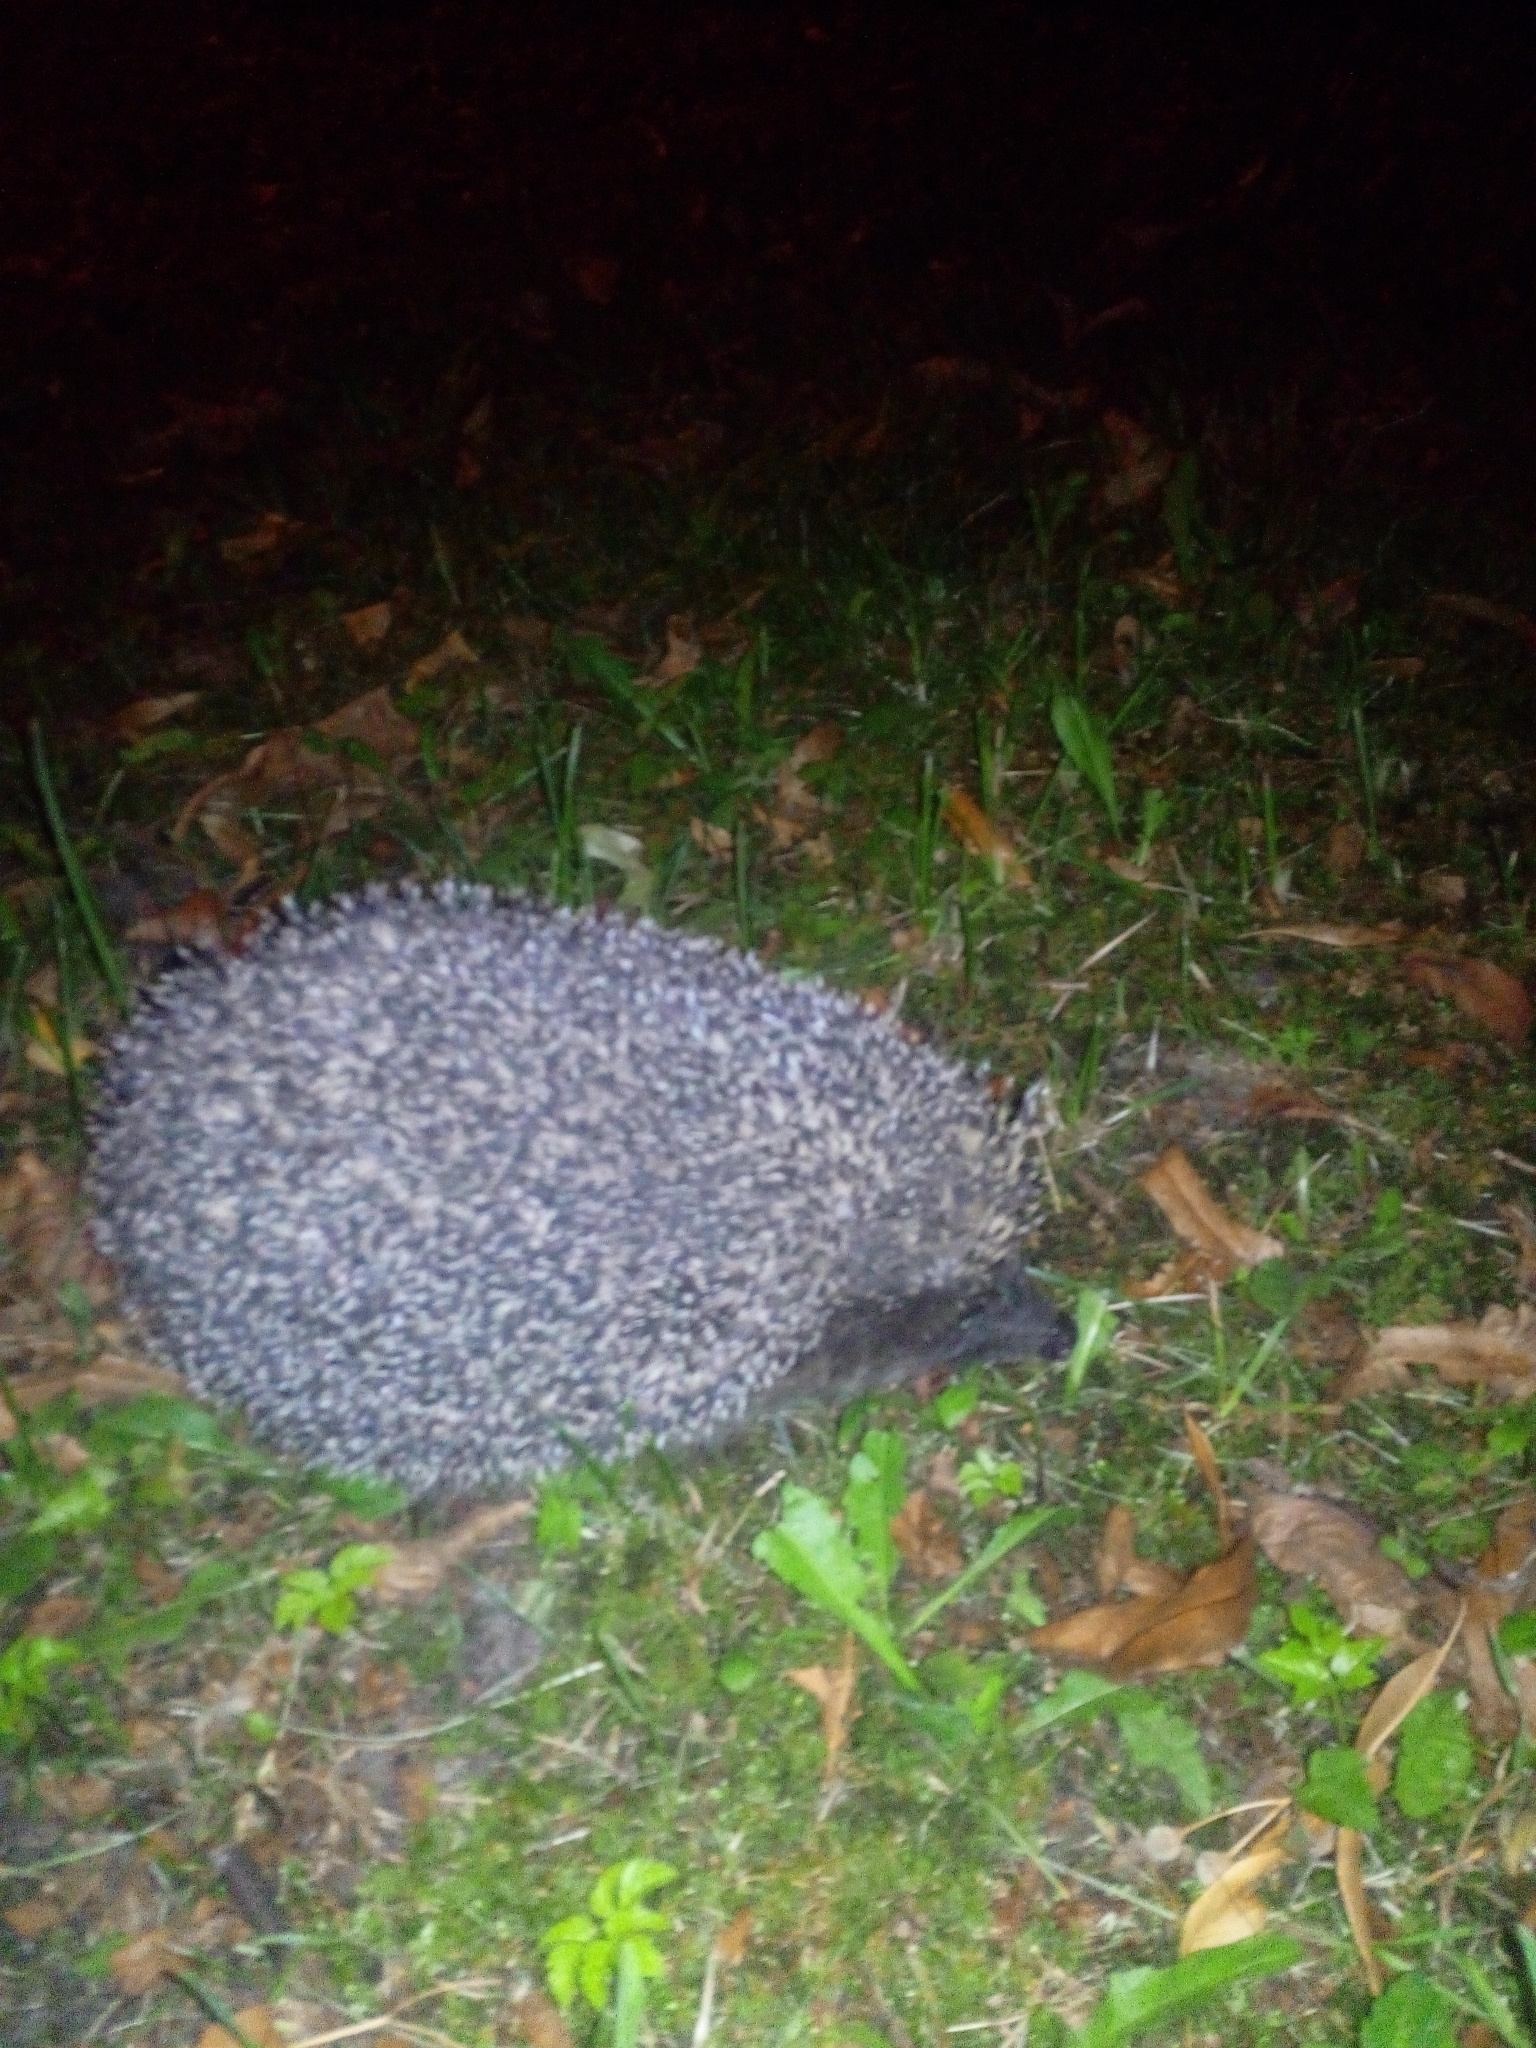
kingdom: Animalia
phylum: Chordata
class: Mammalia
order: Erinaceomorpha
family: Erinaceidae
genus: Erinaceus
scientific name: Erinaceus roumanicus
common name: Northern white-breasted hedgehog
